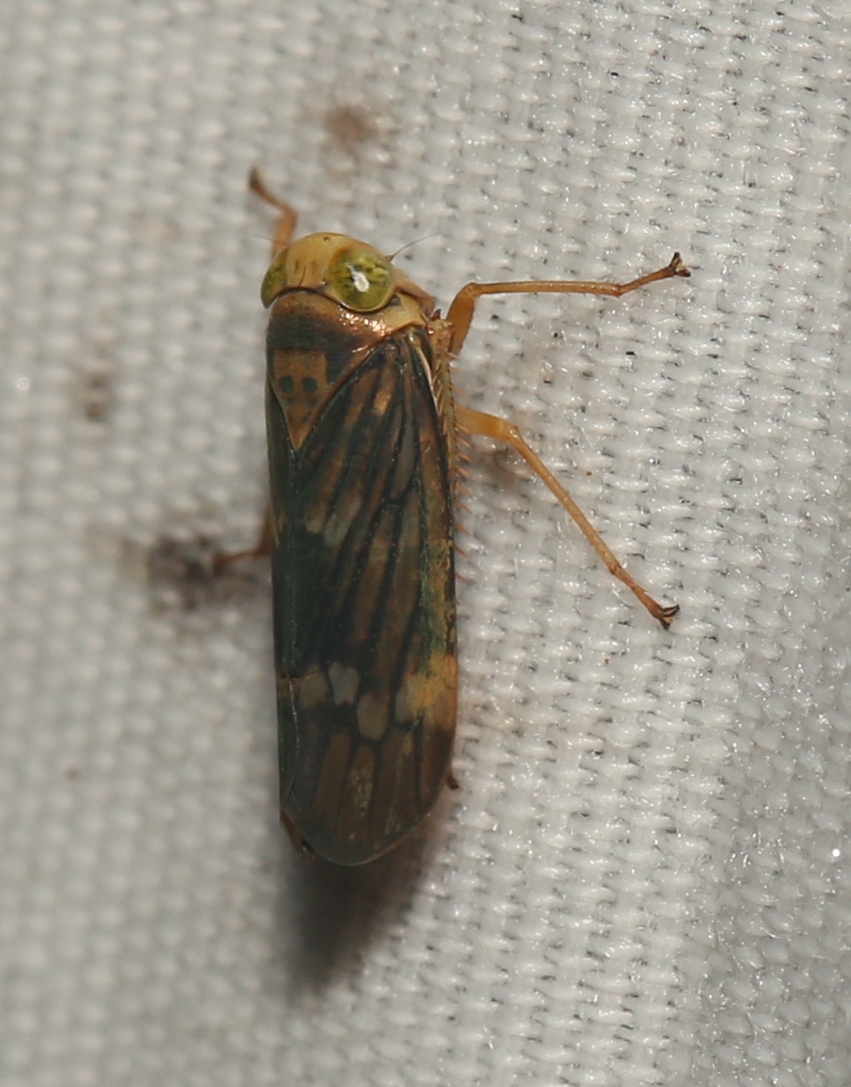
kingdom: Animalia
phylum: Arthropoda
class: Insecta
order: Hemiptera
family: Cicadellidae
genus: Jikradia
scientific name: Jikradia olitoria
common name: Coppery leafhopper
